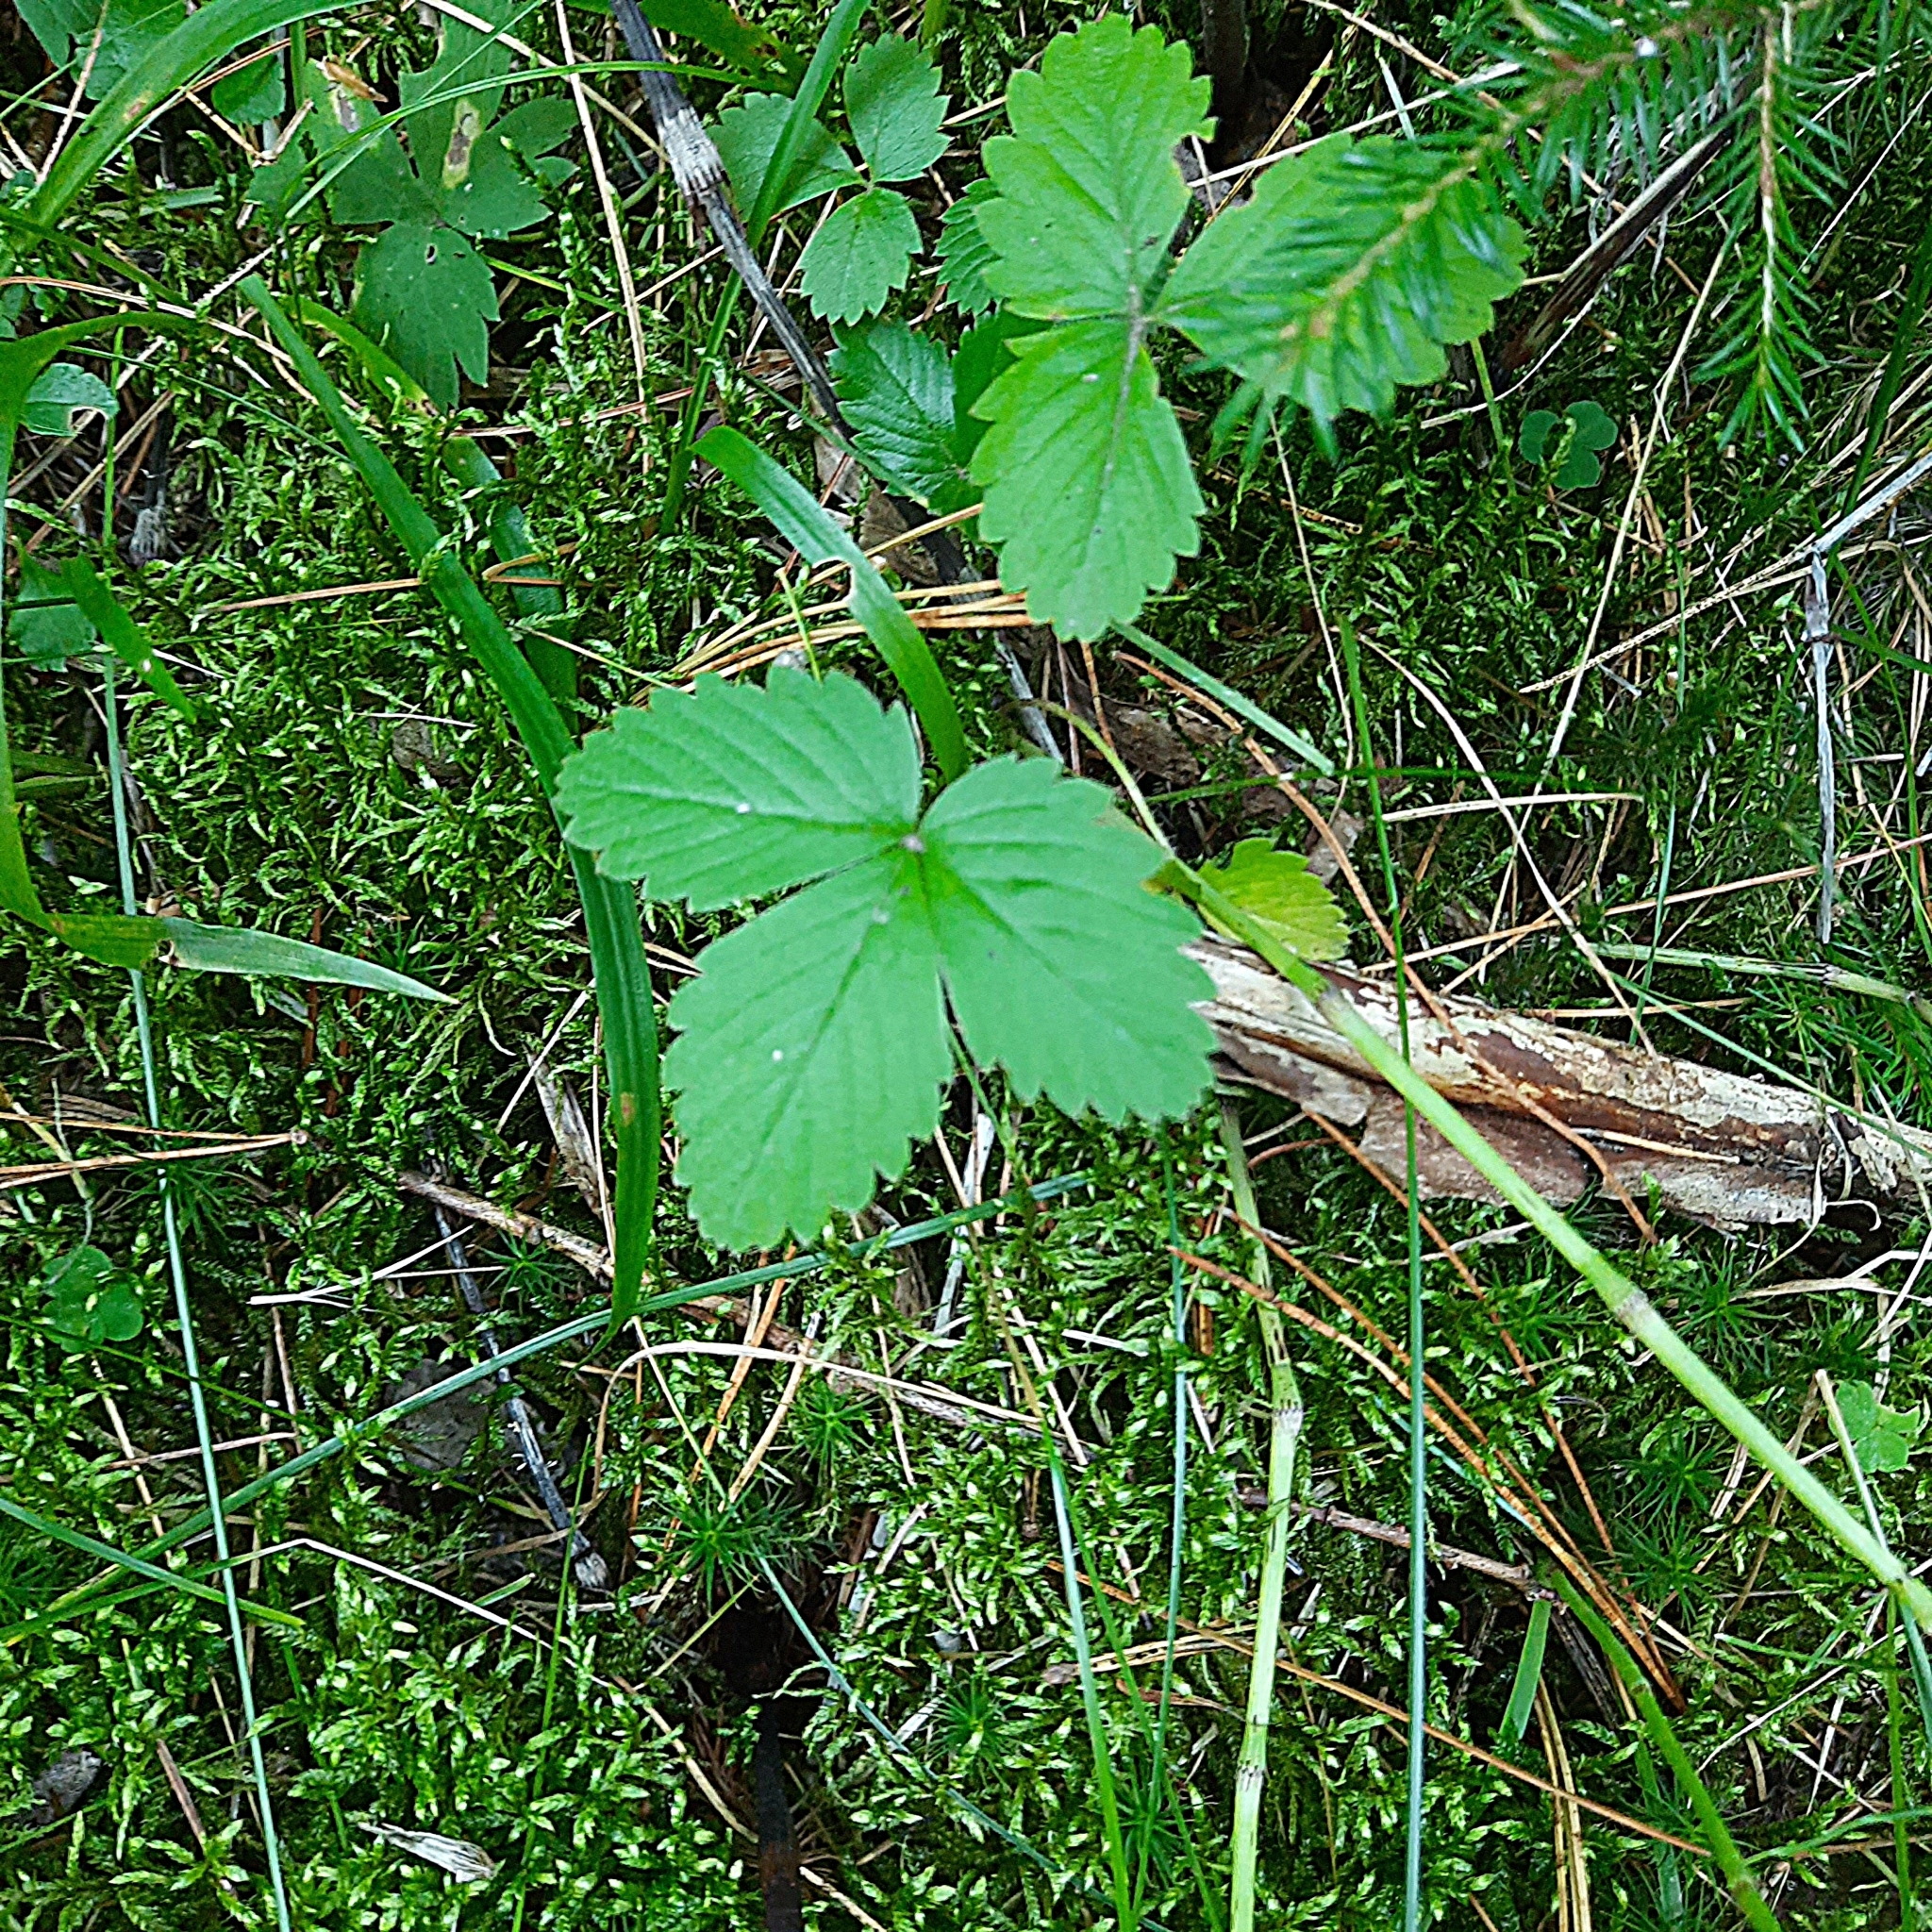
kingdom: Plantae
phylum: Tracheophyta
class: Magnoliopsida
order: Rosales
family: Rosaceae
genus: Fragaria
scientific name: Fragaria vesca
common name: Wild strawberry
